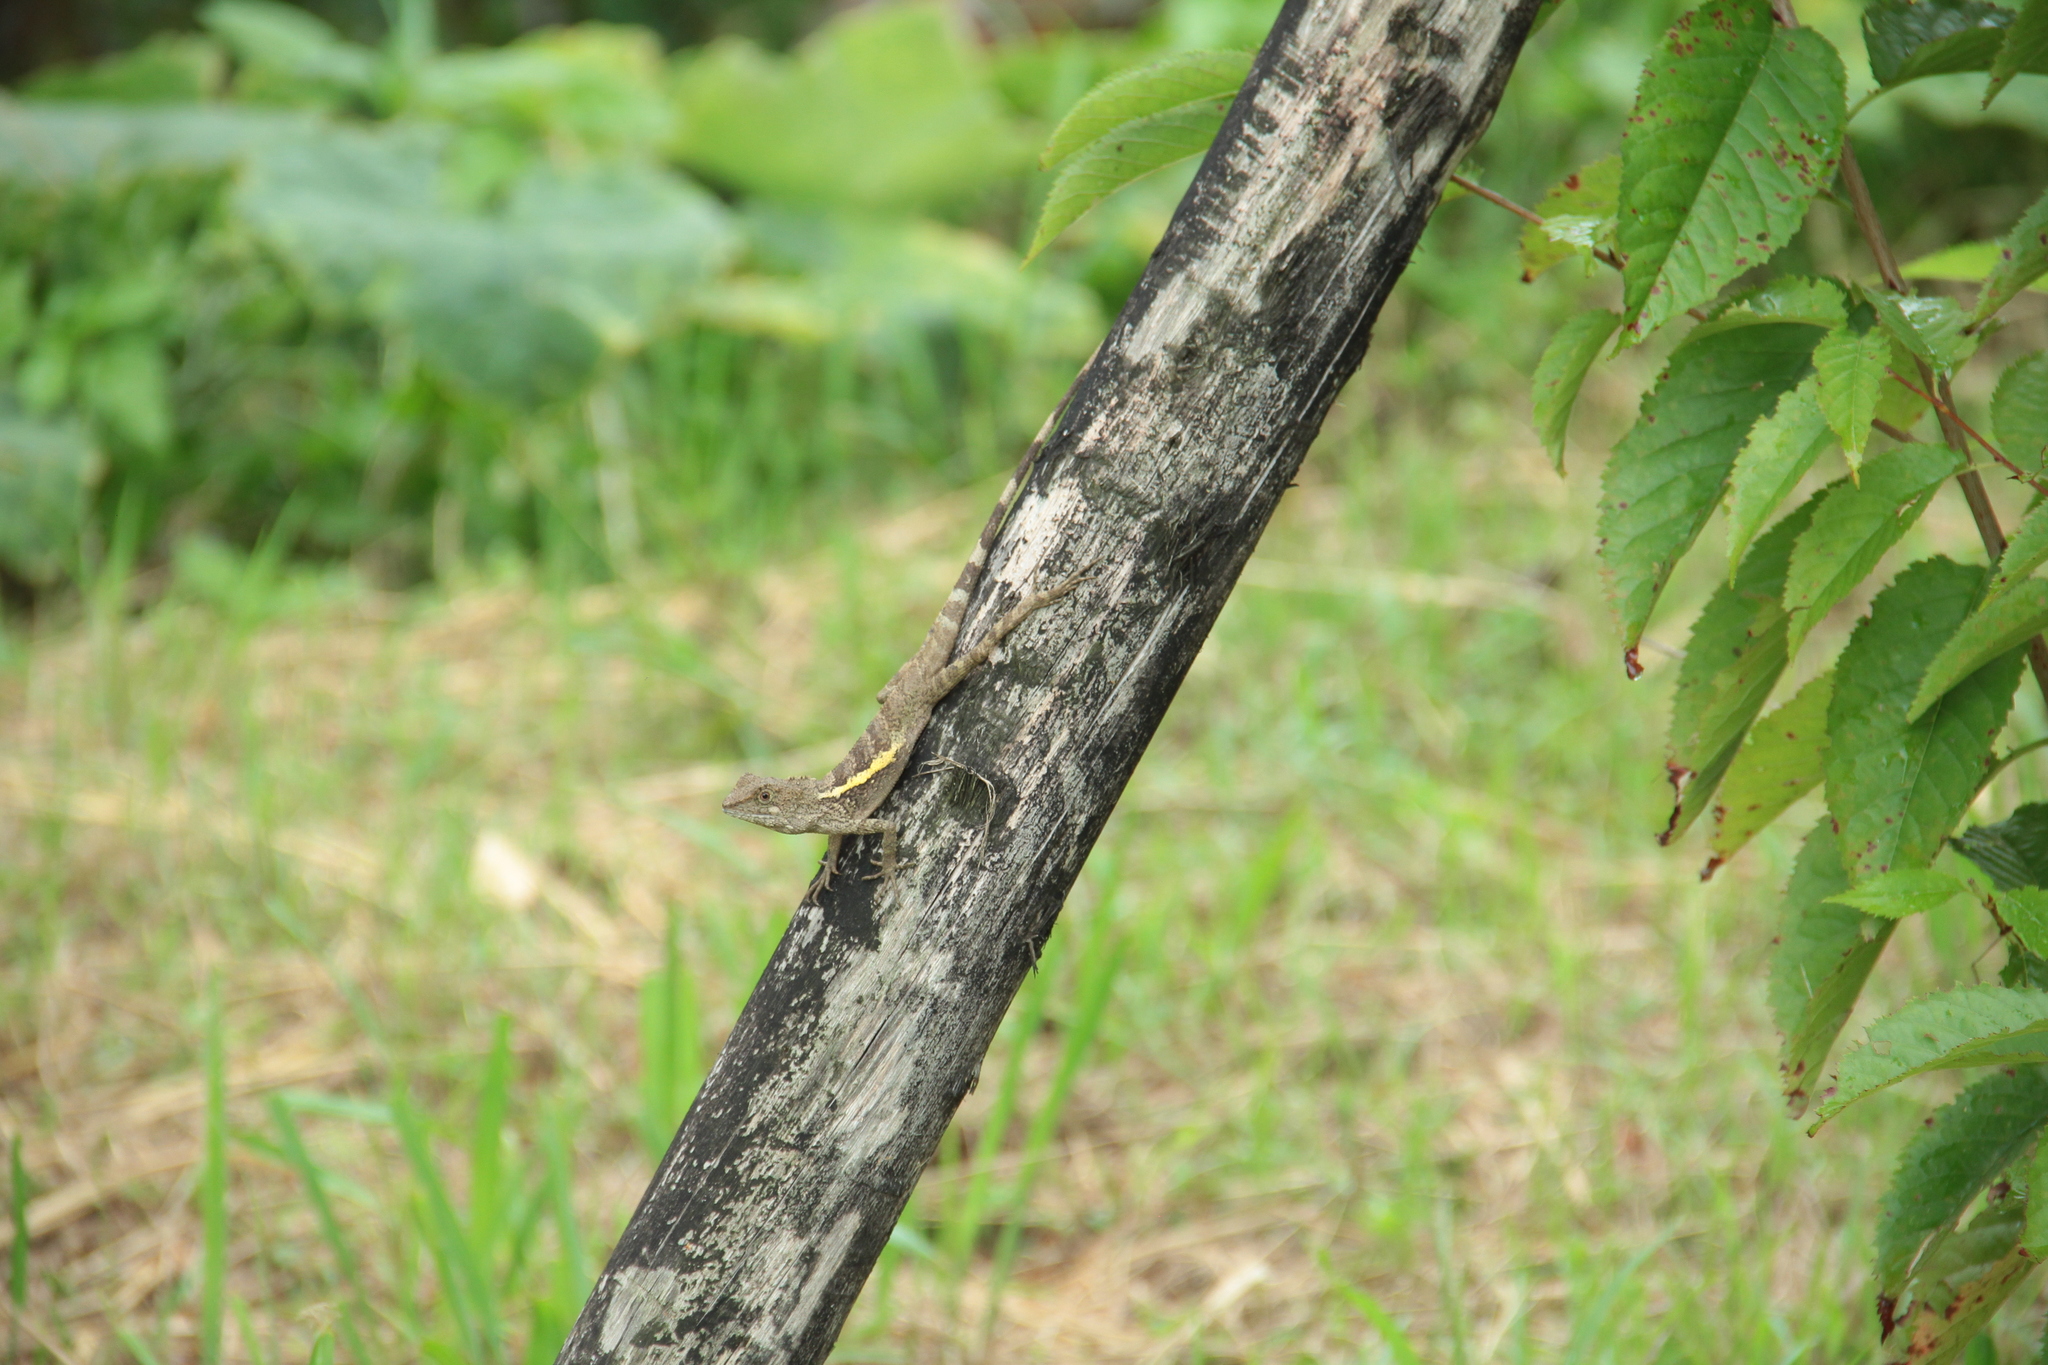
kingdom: Animalia
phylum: Chordata
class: Squamata
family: Agamidae
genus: Diploderma
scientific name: Diploderma swinhonis
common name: Taiwan japalure
